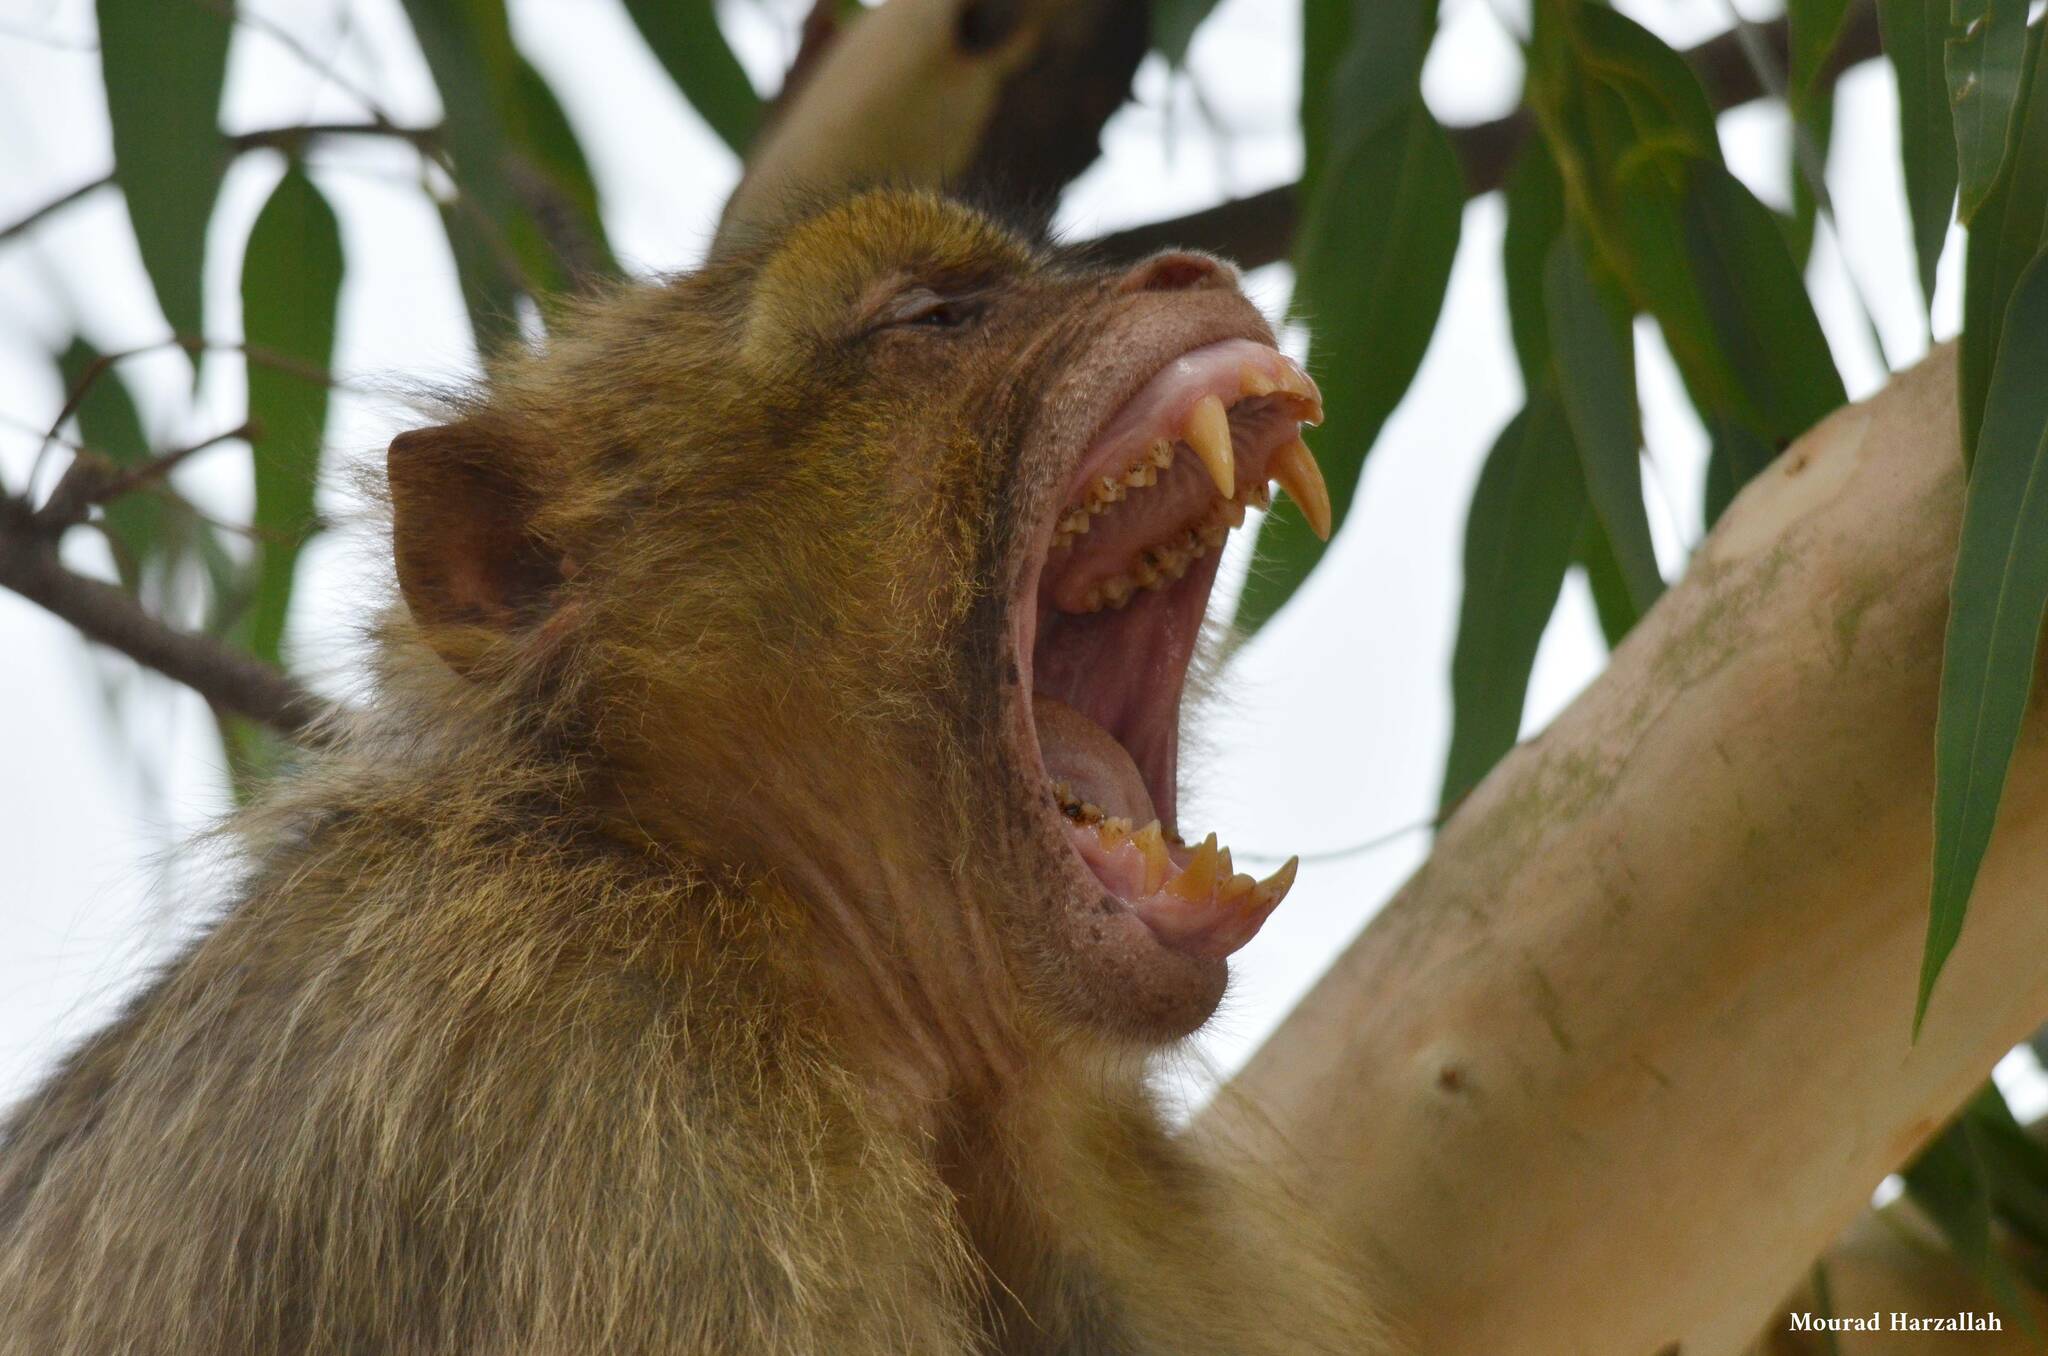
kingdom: Animalia
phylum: Chordata
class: Mammalia
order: Primates
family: Cercopithecidae
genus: Macaca
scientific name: Macaca sylvanus
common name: Barbary macaque
